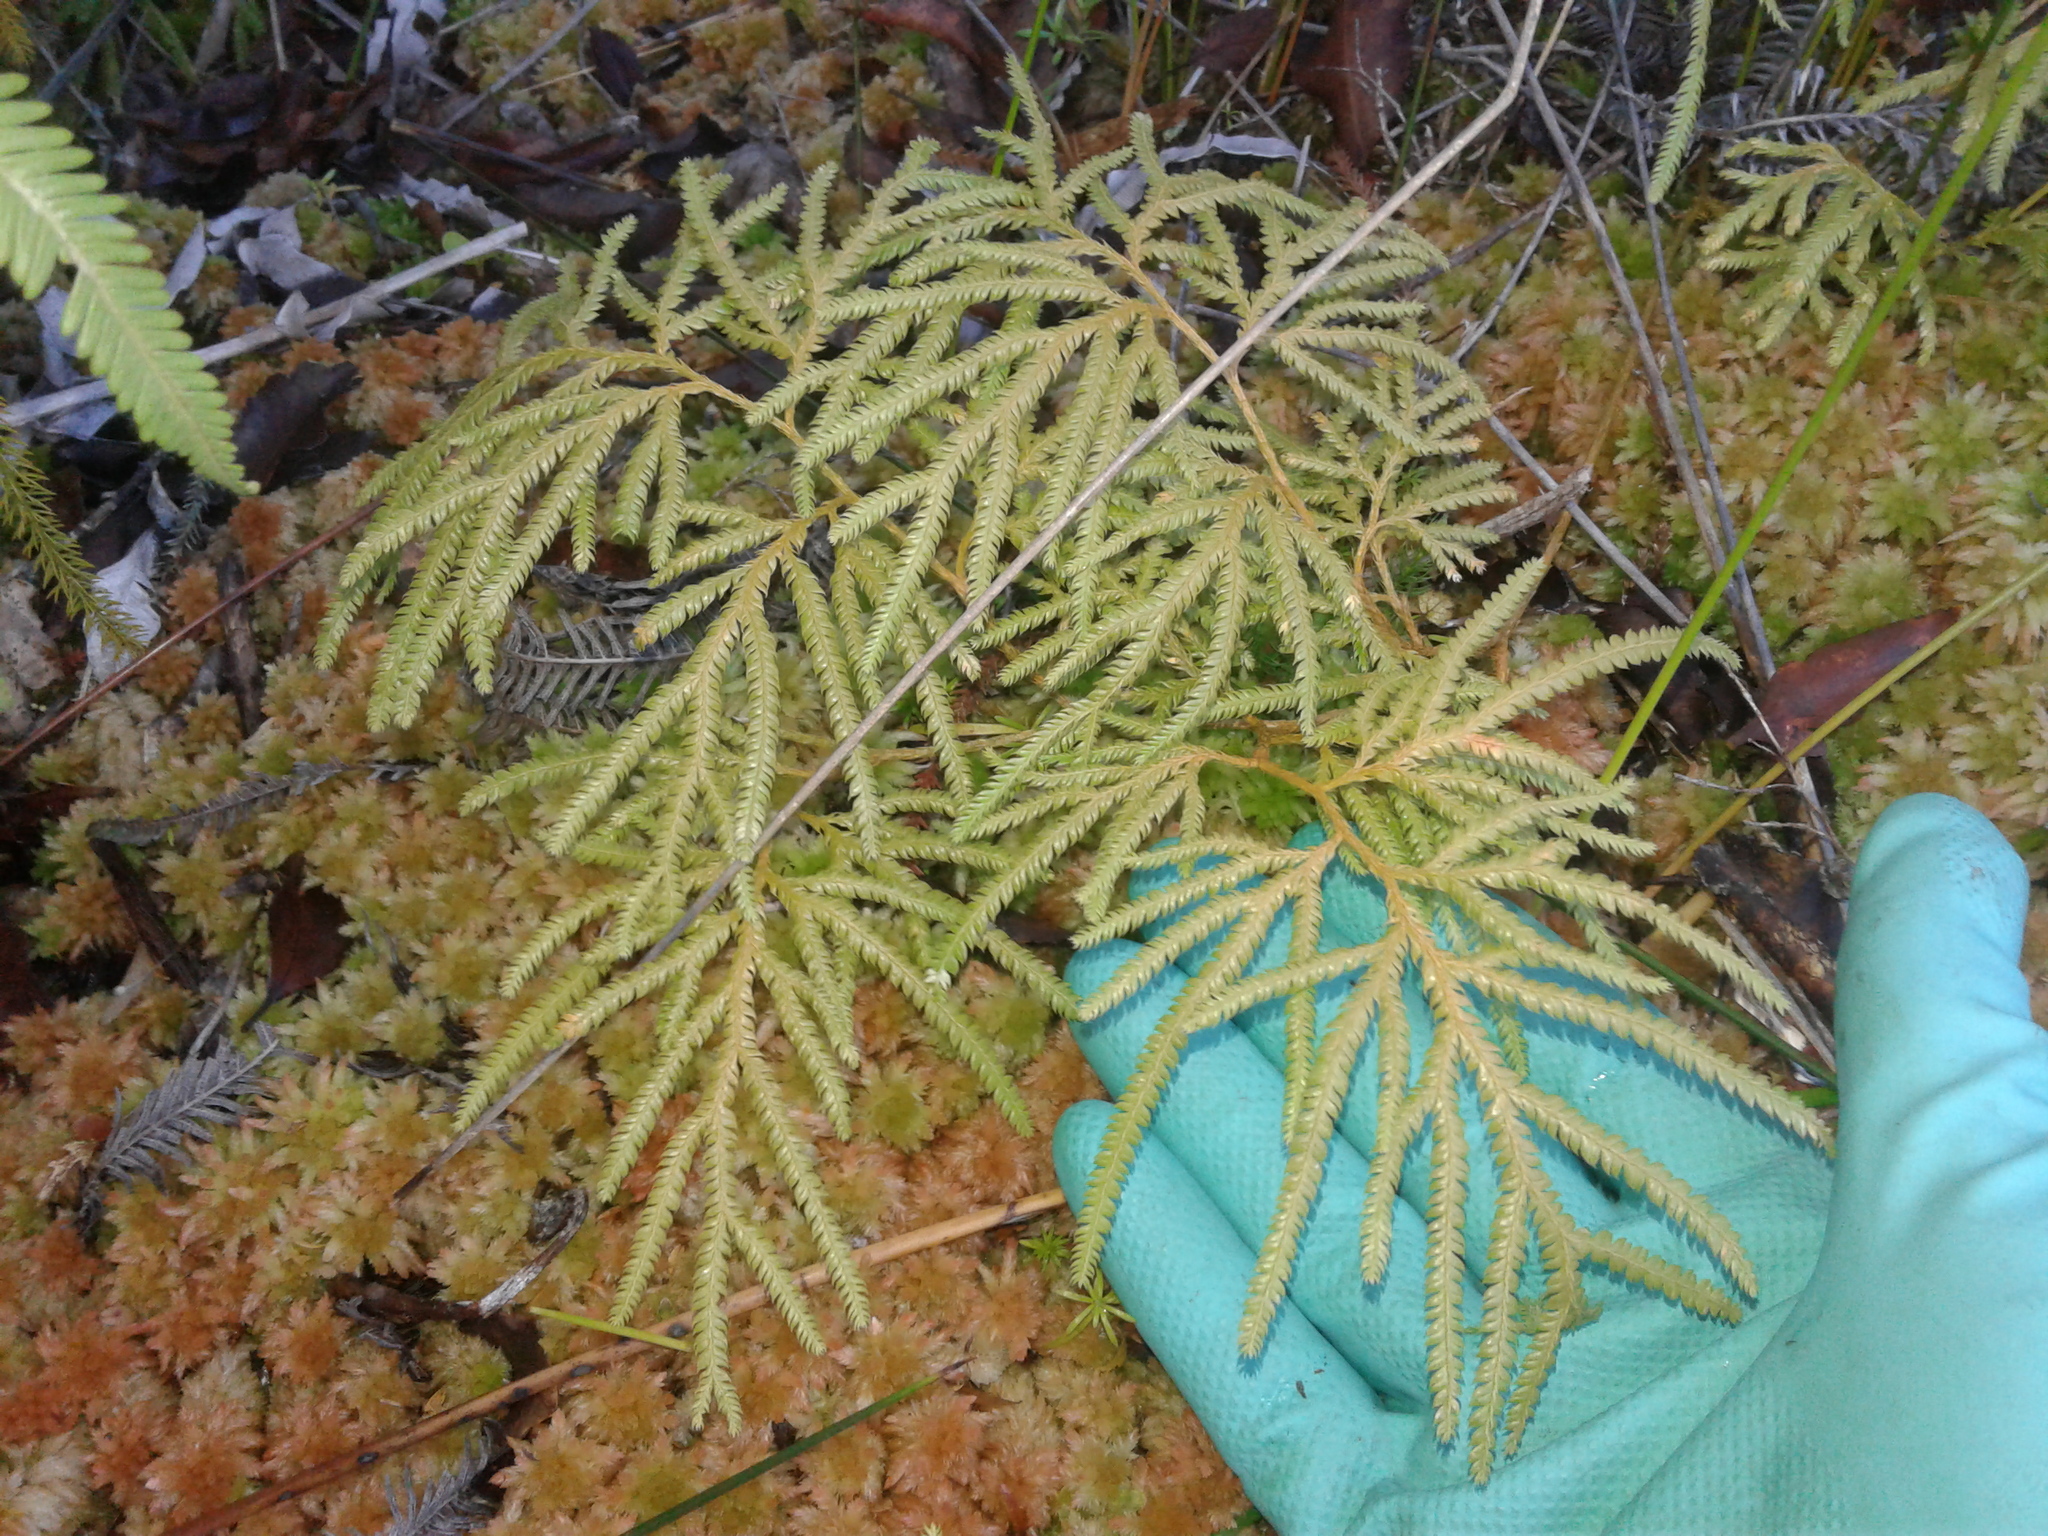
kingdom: Plantae
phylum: Tracheophyta
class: Lycopodiopsida
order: Lycopodiales
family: Lycopodiaceae
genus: Lycopodium
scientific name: Lycopodium volubile
